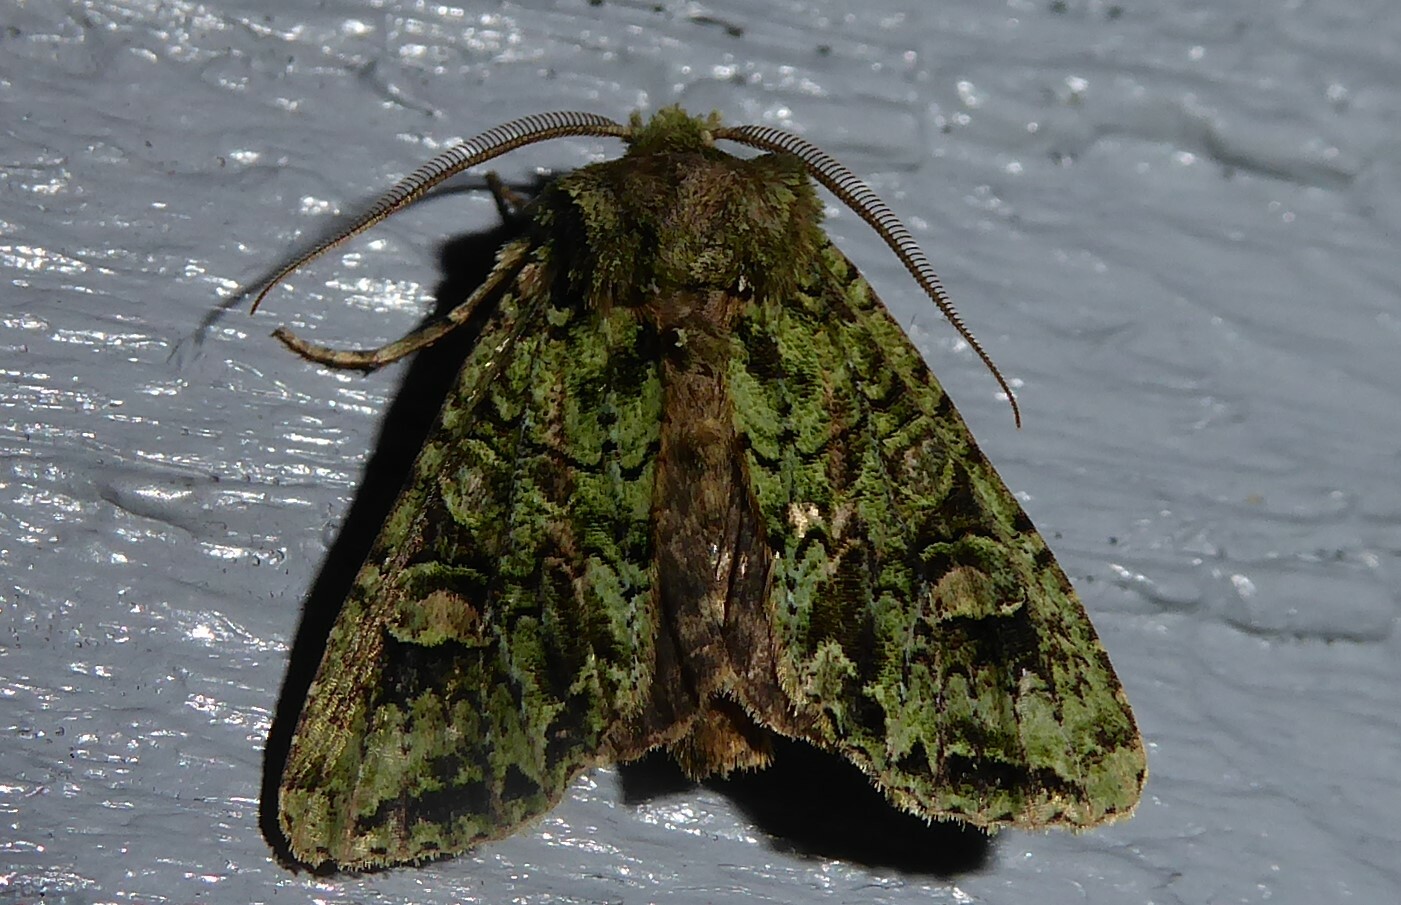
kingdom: Animalia
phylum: Arthropoda
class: Insecta
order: Lepidoptera
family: Noctuidae
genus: Ichneutica
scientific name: Ichneutica
